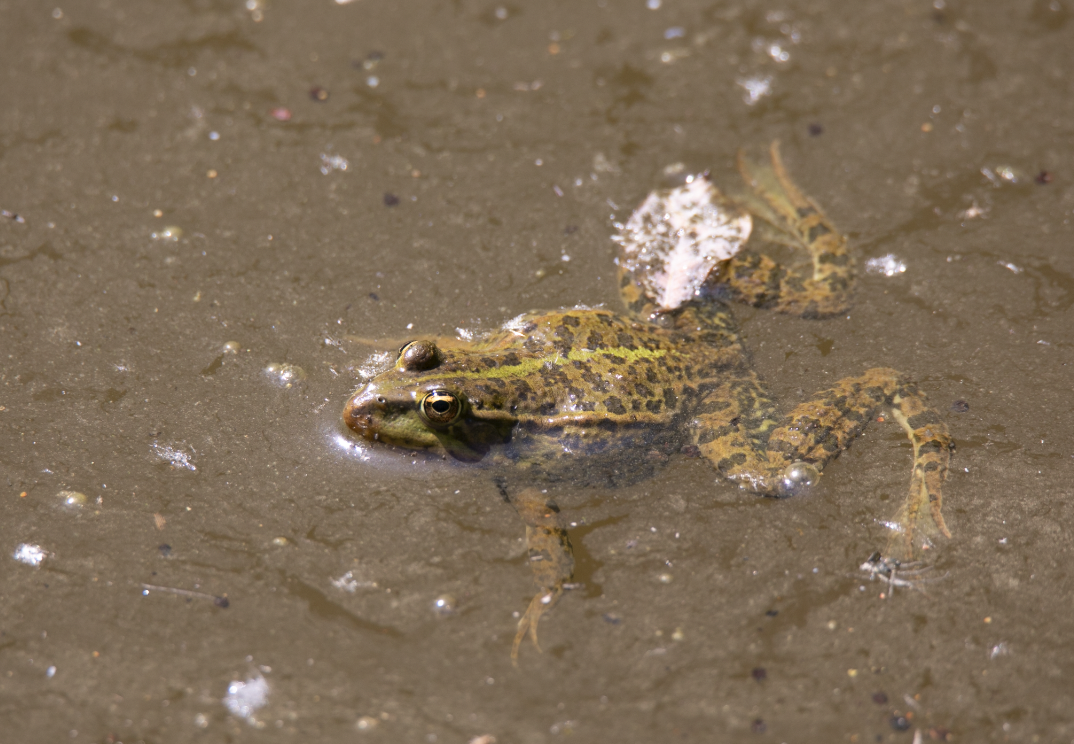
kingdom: Animalia
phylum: Chordata
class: Amphibia
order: Anura
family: Ranidae
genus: Pelophylax
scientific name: Pelophylax
